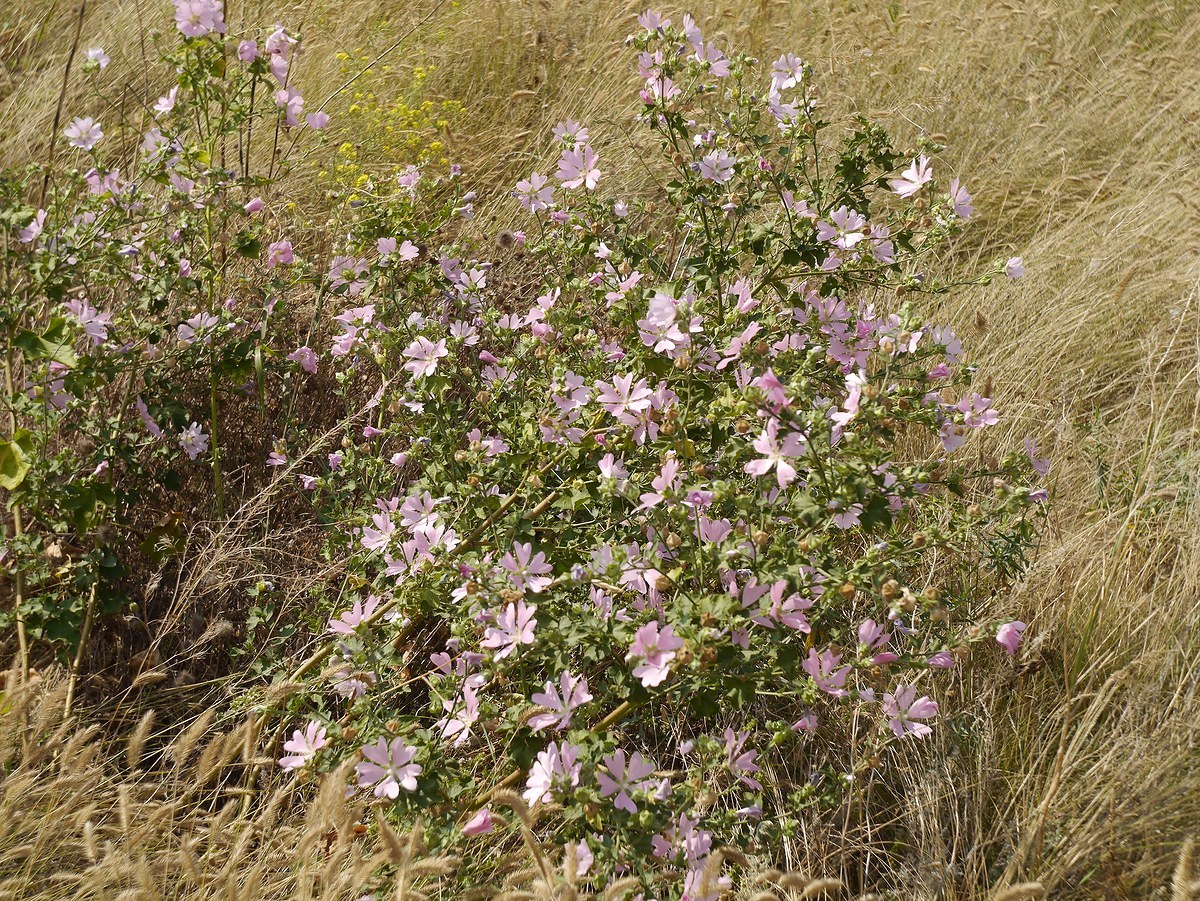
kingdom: Plantae
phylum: Tracheophyta
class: Magnoliopsida
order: Malvales
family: Malvaceae
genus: Malva
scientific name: Malva thuringiaca
